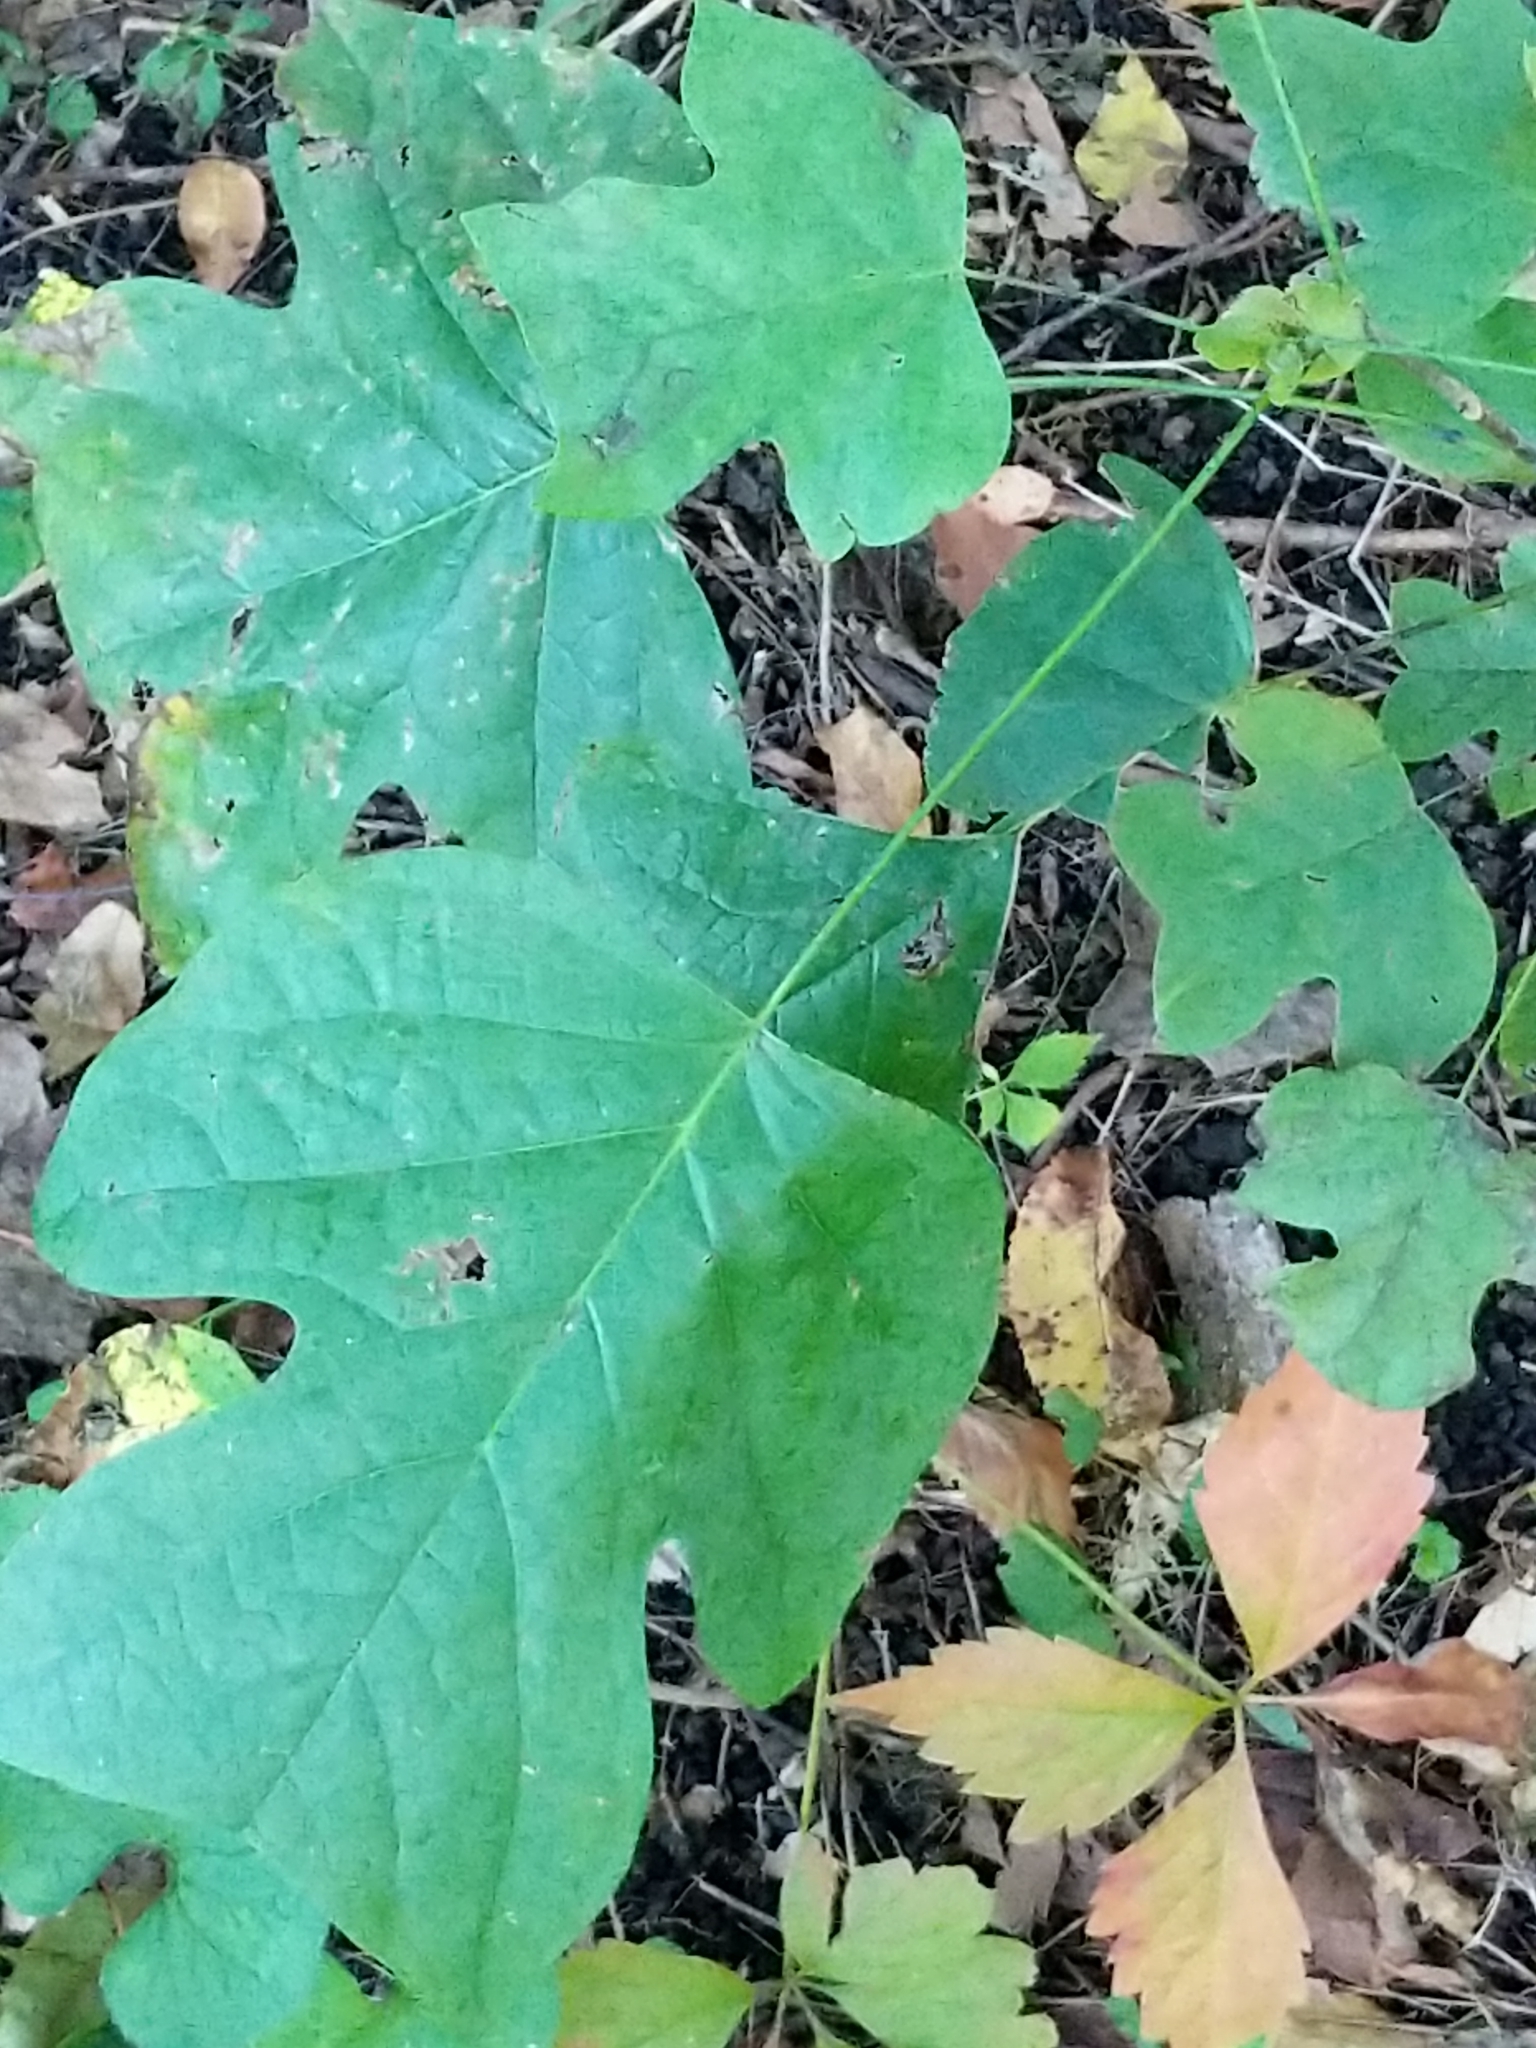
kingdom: Plantae
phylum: Tracheophyta
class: Magnoliopsida
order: Magnoliales
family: Magnoliaceae
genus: Liriodendron
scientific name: Liriodendron tulipifera
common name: Tulip tree
